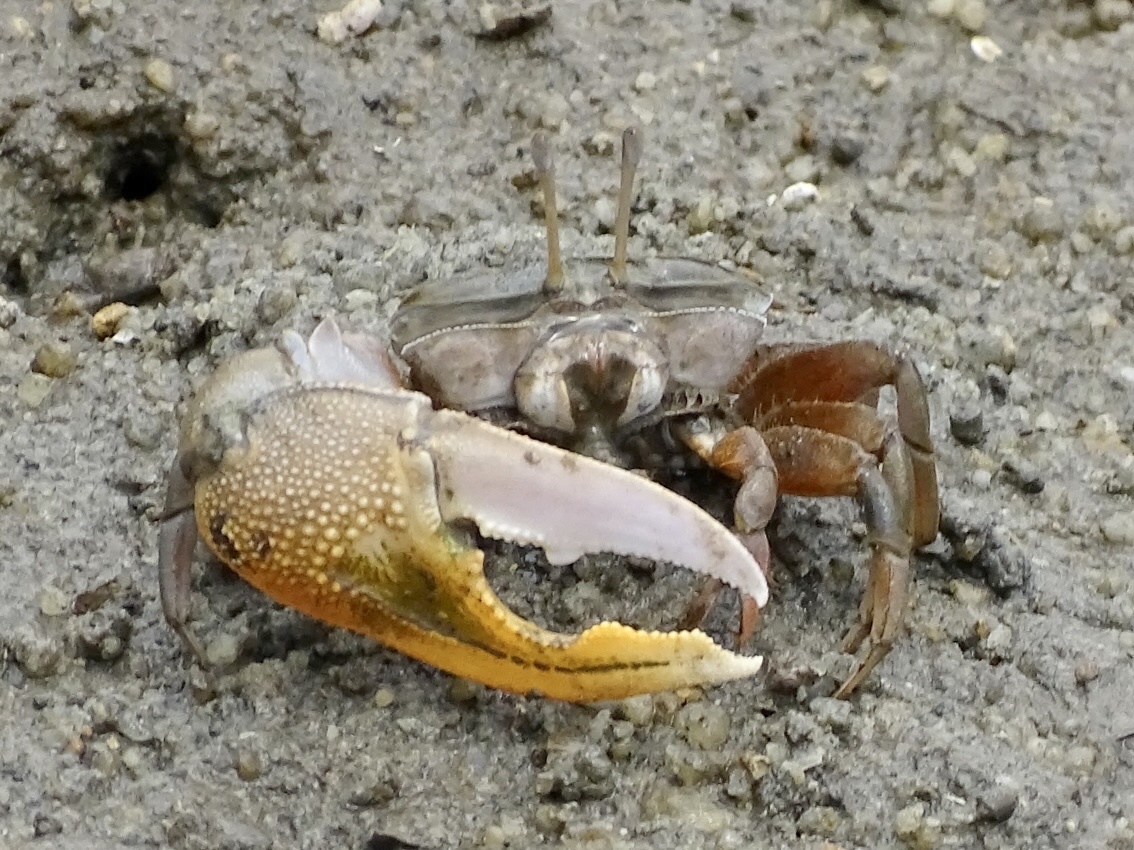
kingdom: Animalia
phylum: Arthropoda
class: Malacostraca
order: Decapoda
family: Ocypodidae
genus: Gelasimus
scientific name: Gelasimus borealis
